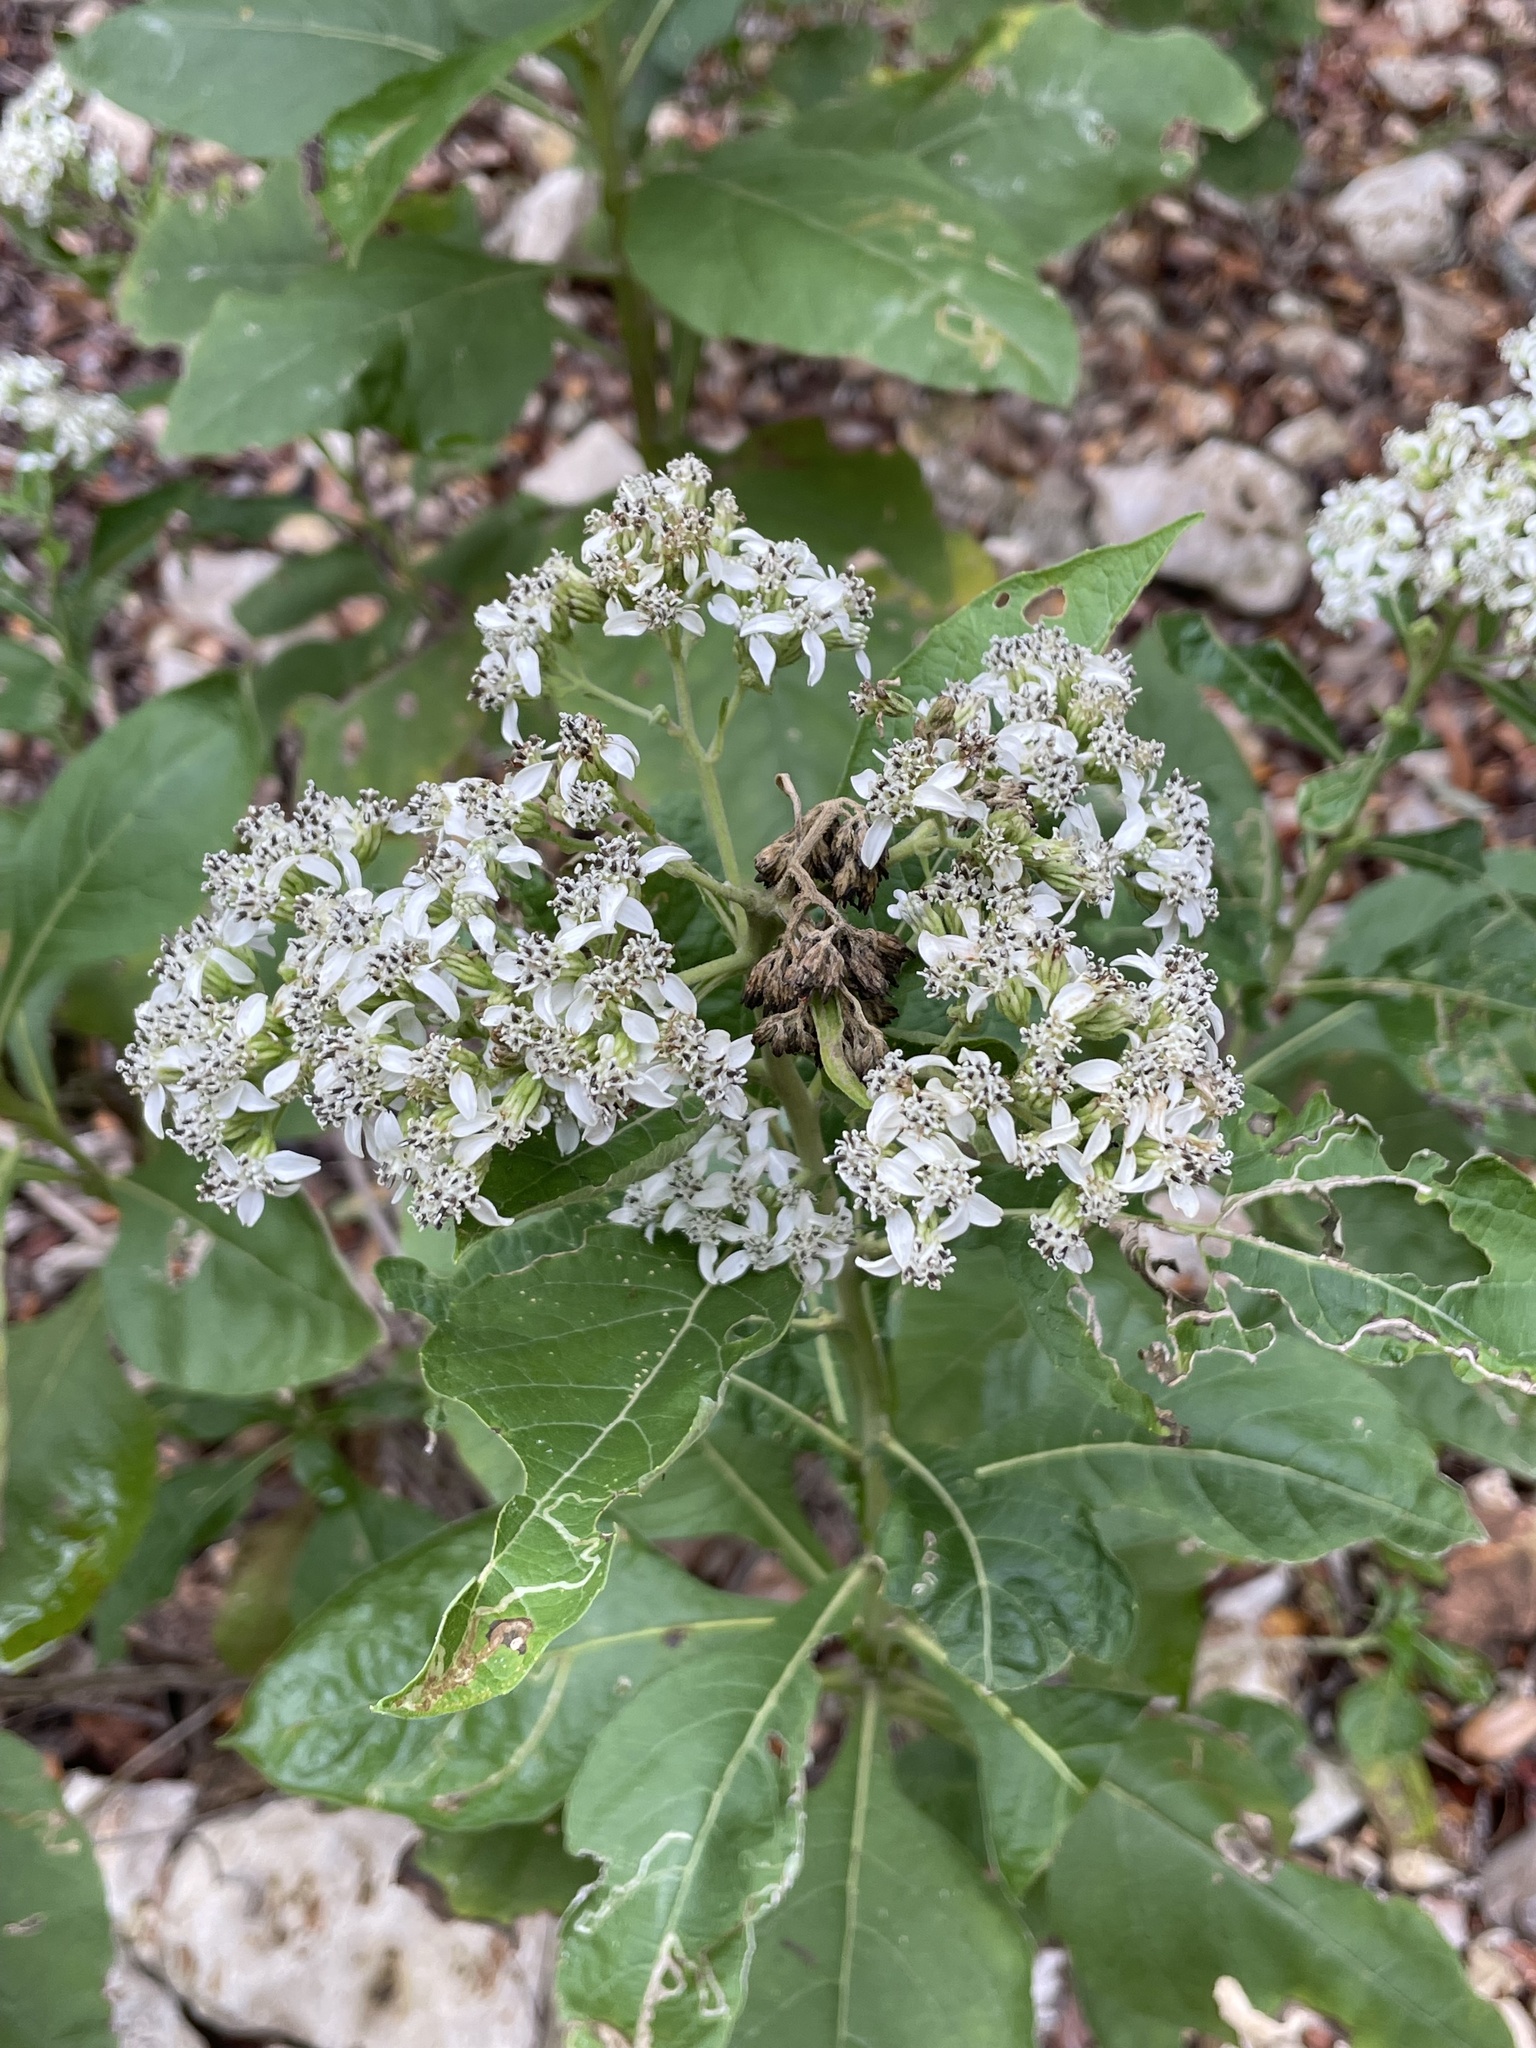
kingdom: Plantae
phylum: Tracheophyta
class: Magnoliopsida
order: Asterales
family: Asteraceae
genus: Verbesina
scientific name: Verbesina virginica
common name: Frostweed
